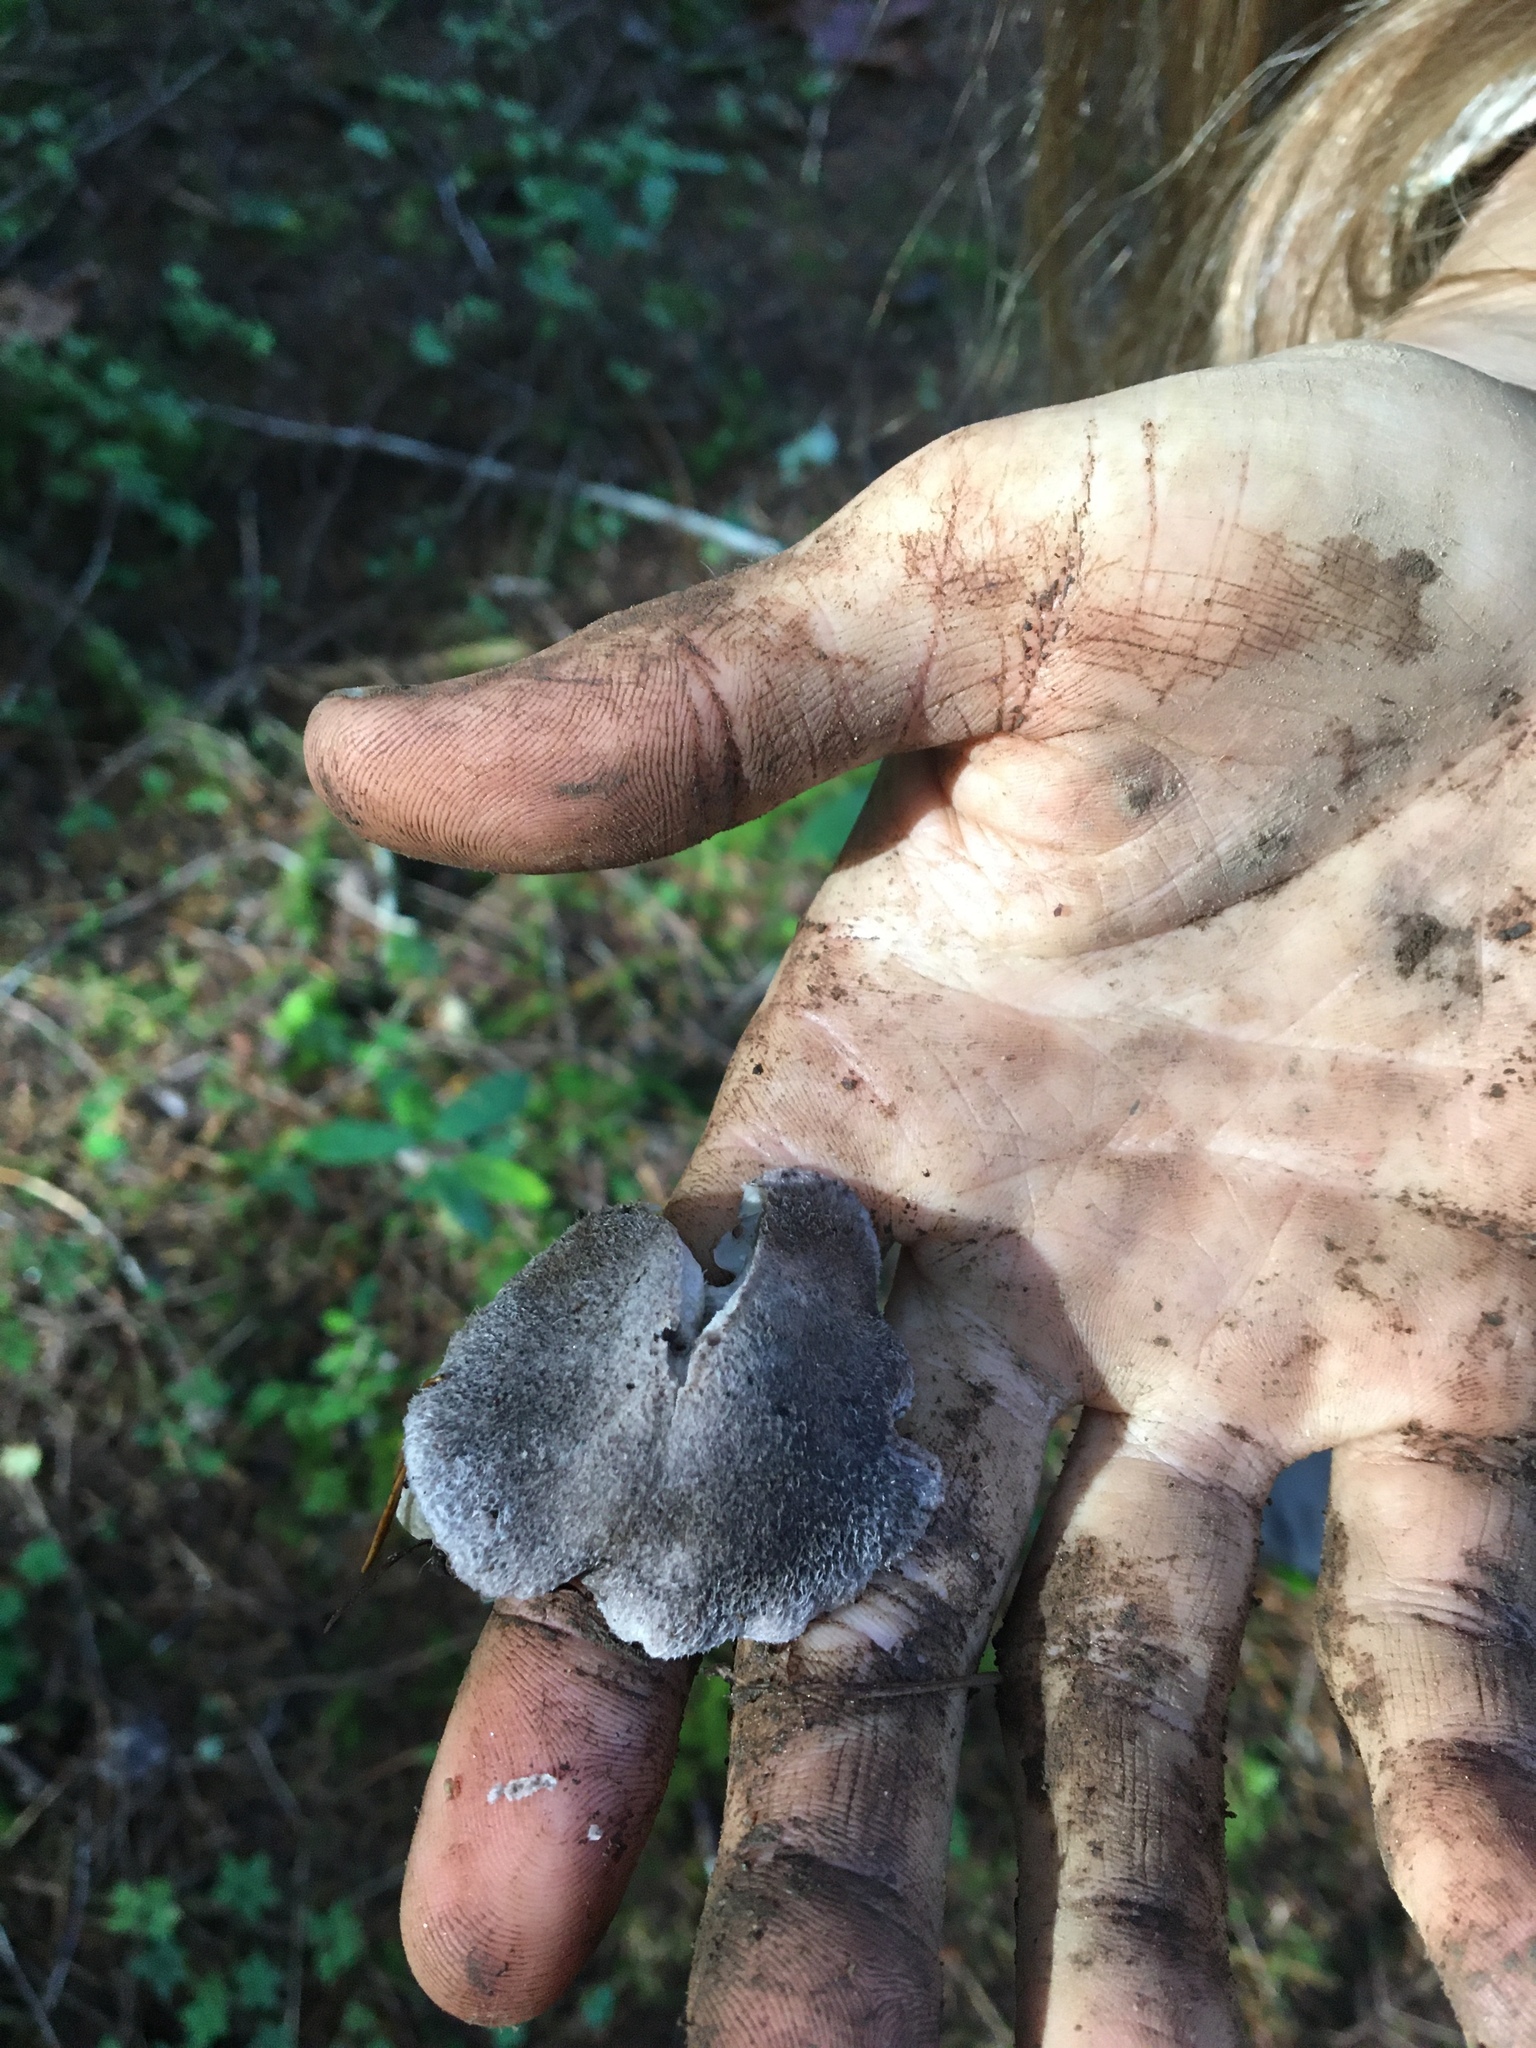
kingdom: Fungi
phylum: Basidiomycota
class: Agaricomycetes
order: Agaricales
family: Tricholomataceae
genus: Tricholoma
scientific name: Tricholoma terreum
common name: Grey knight
